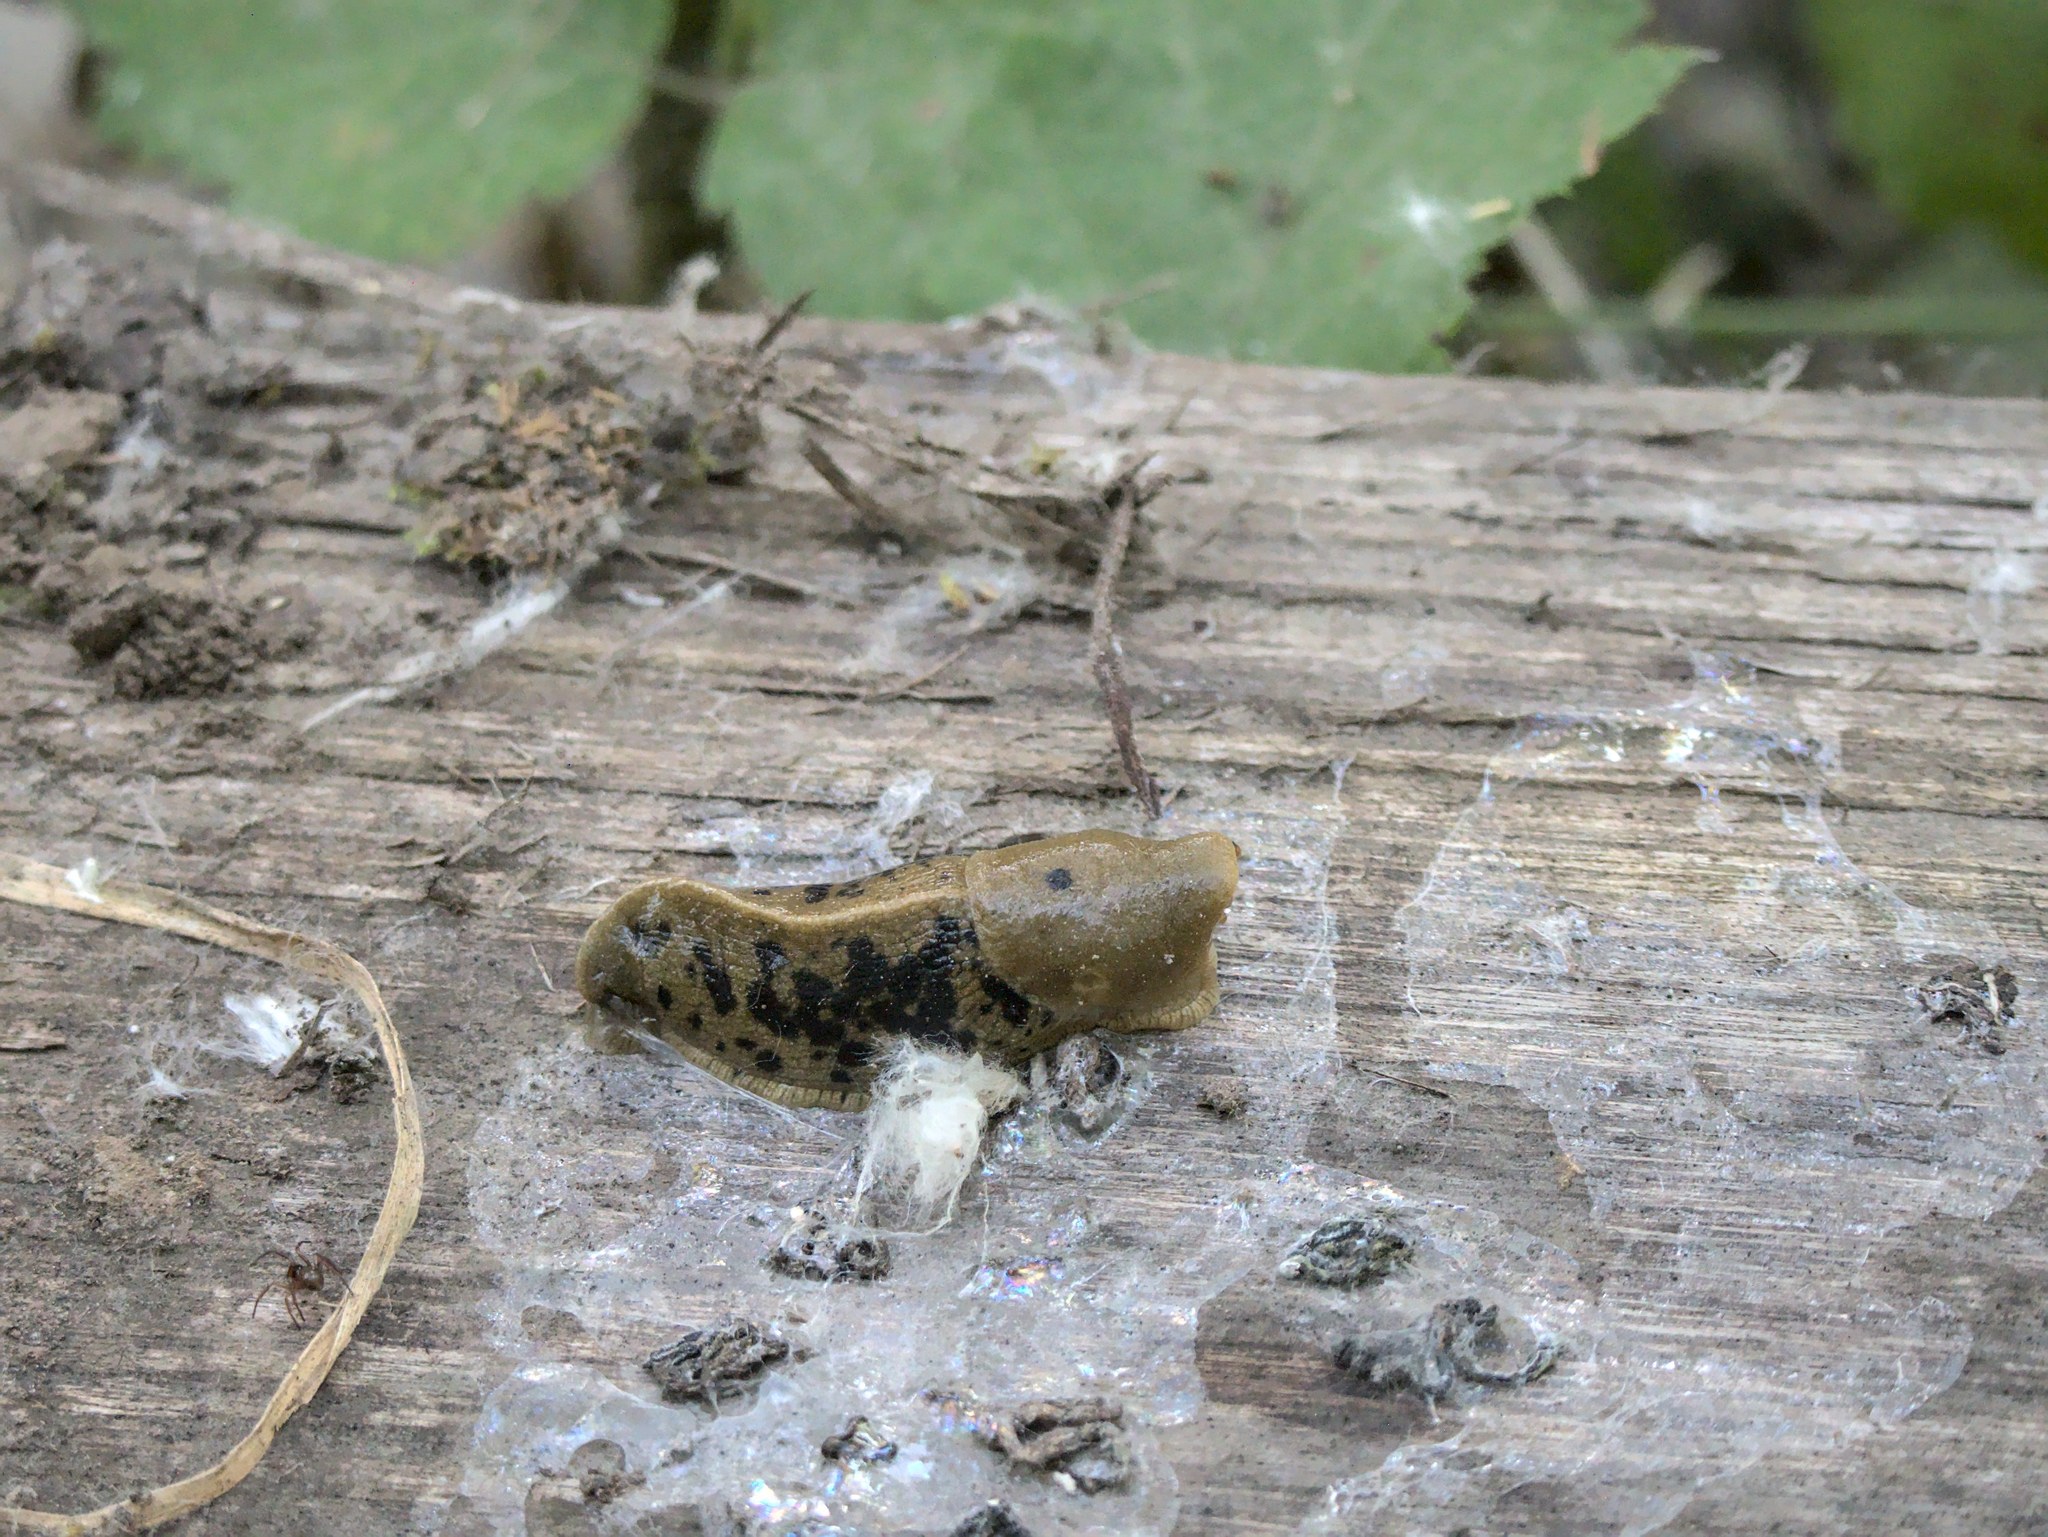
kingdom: Animalia
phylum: Mollusca
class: Gastropoda
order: Stylommatophora
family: Ariolimacidae
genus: Ariolimax
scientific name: Ariolimax columbianus
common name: Pacific banana slug
